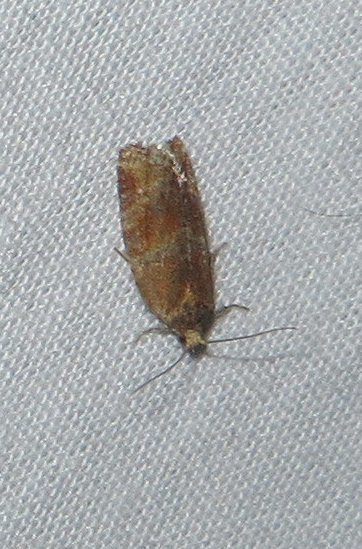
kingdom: Animalia
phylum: Arthropoda
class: Insecta
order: Lepidoptera
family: Tortricidae
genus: Argyrotaenia
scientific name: Argyrotaenia pinatubana
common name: Pine tube moth
